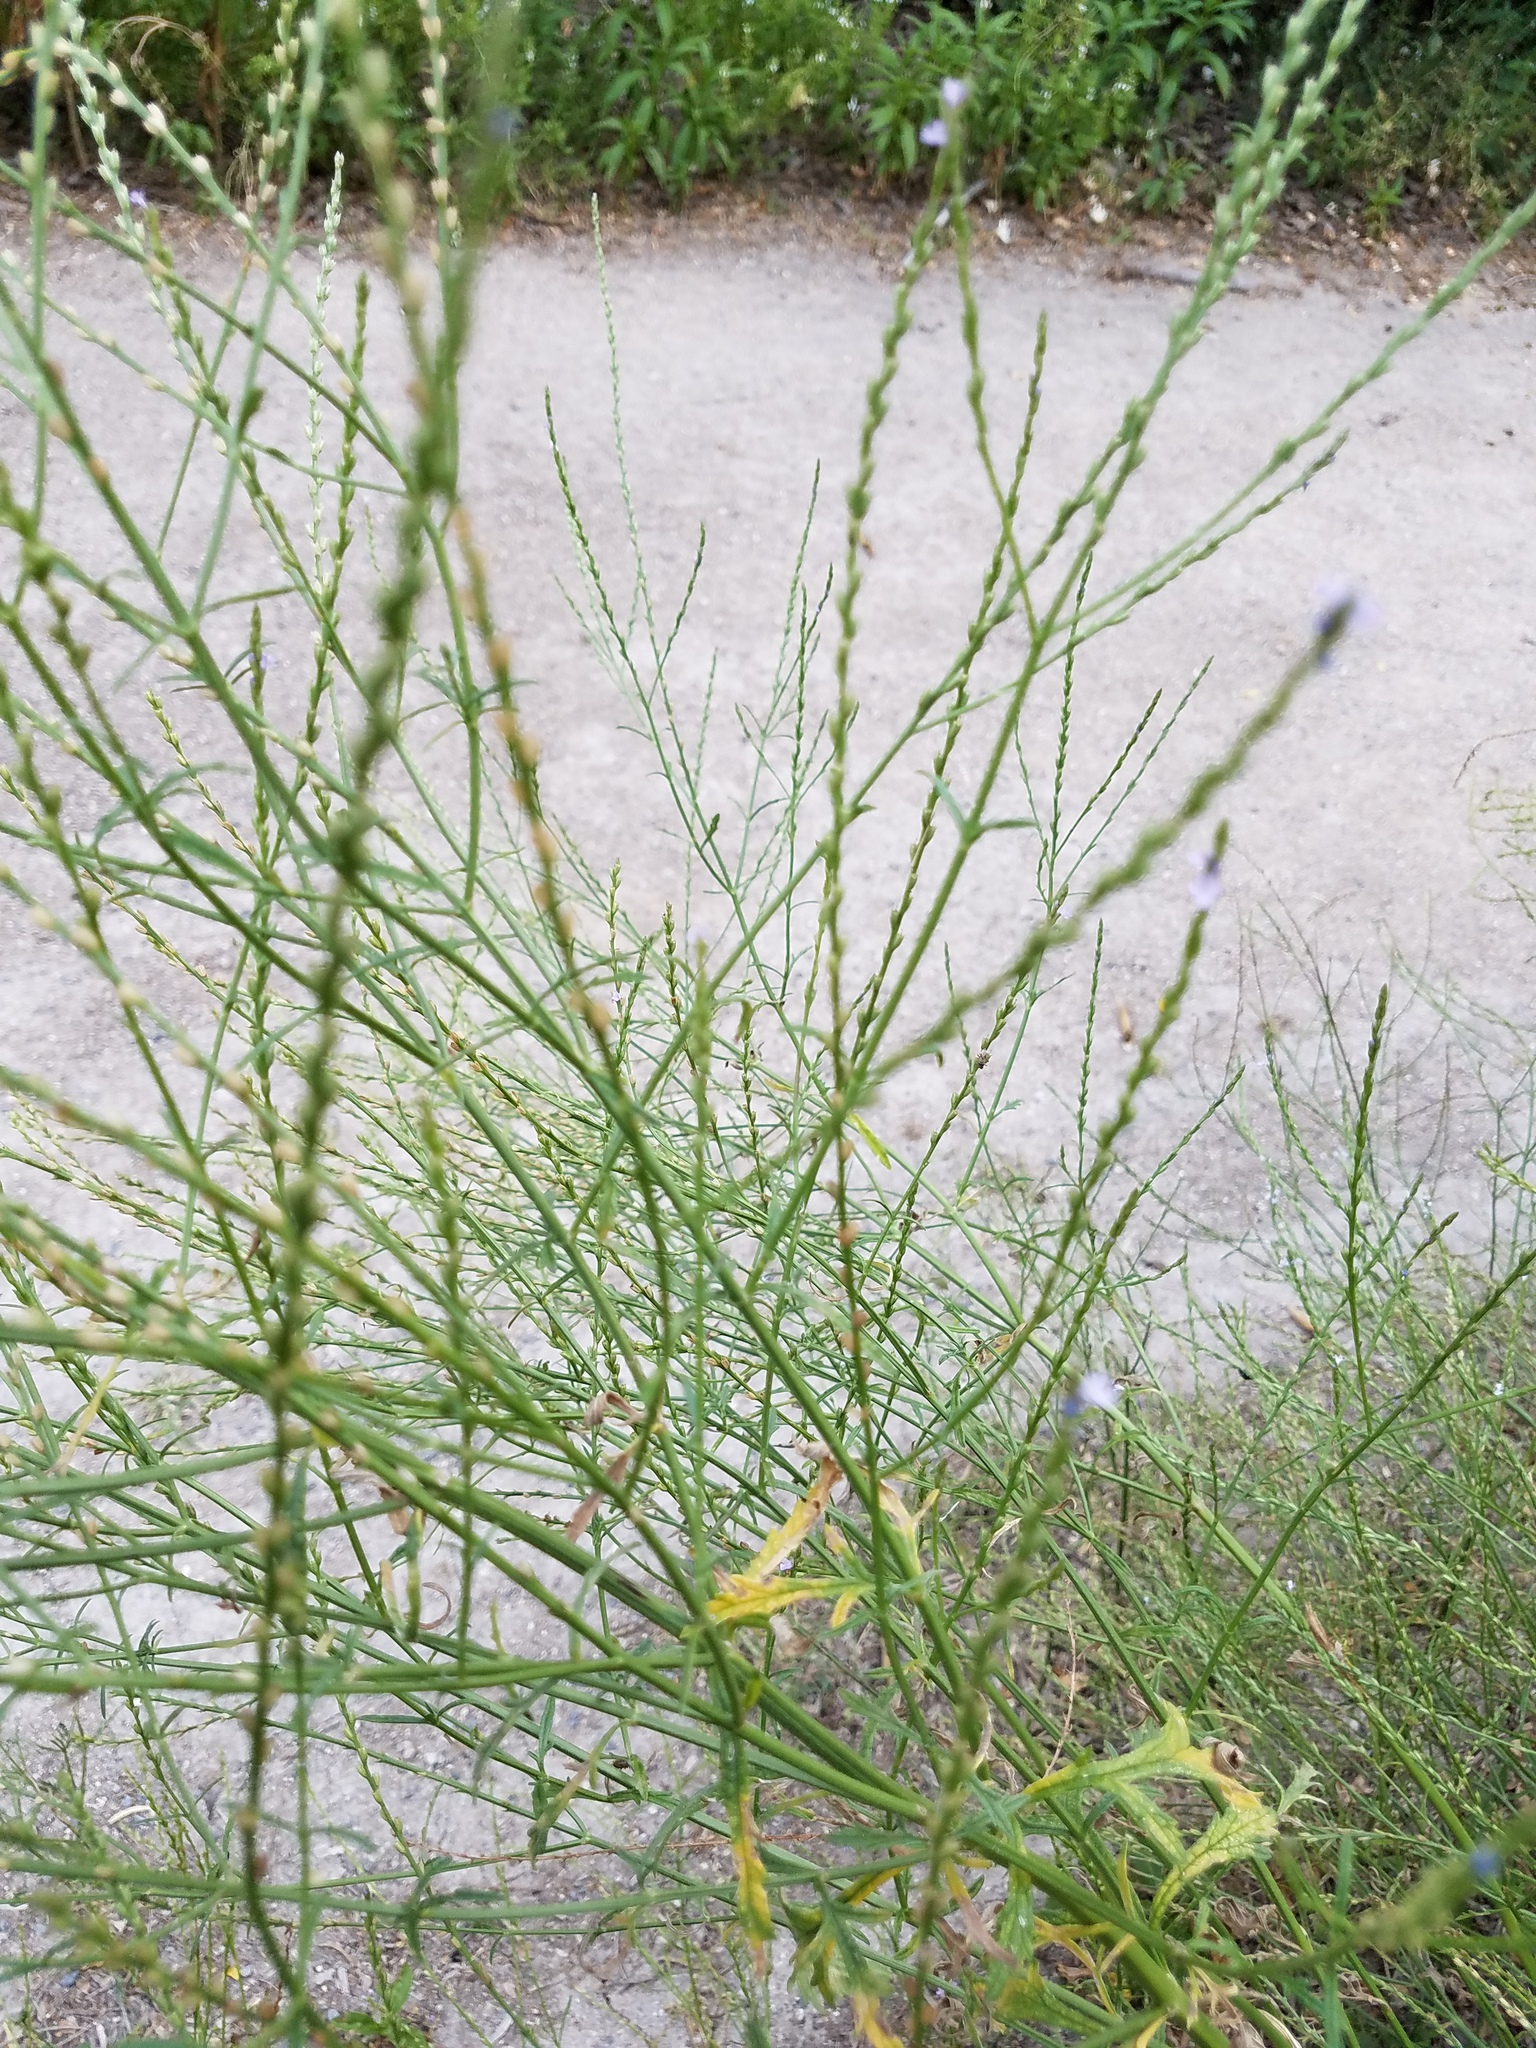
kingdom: Plantae
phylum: Tracheophyta
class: Magnoliopsida
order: Lamiales
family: Verbenaceae
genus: Verbena
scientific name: Verbena halei
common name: Texas vervain
